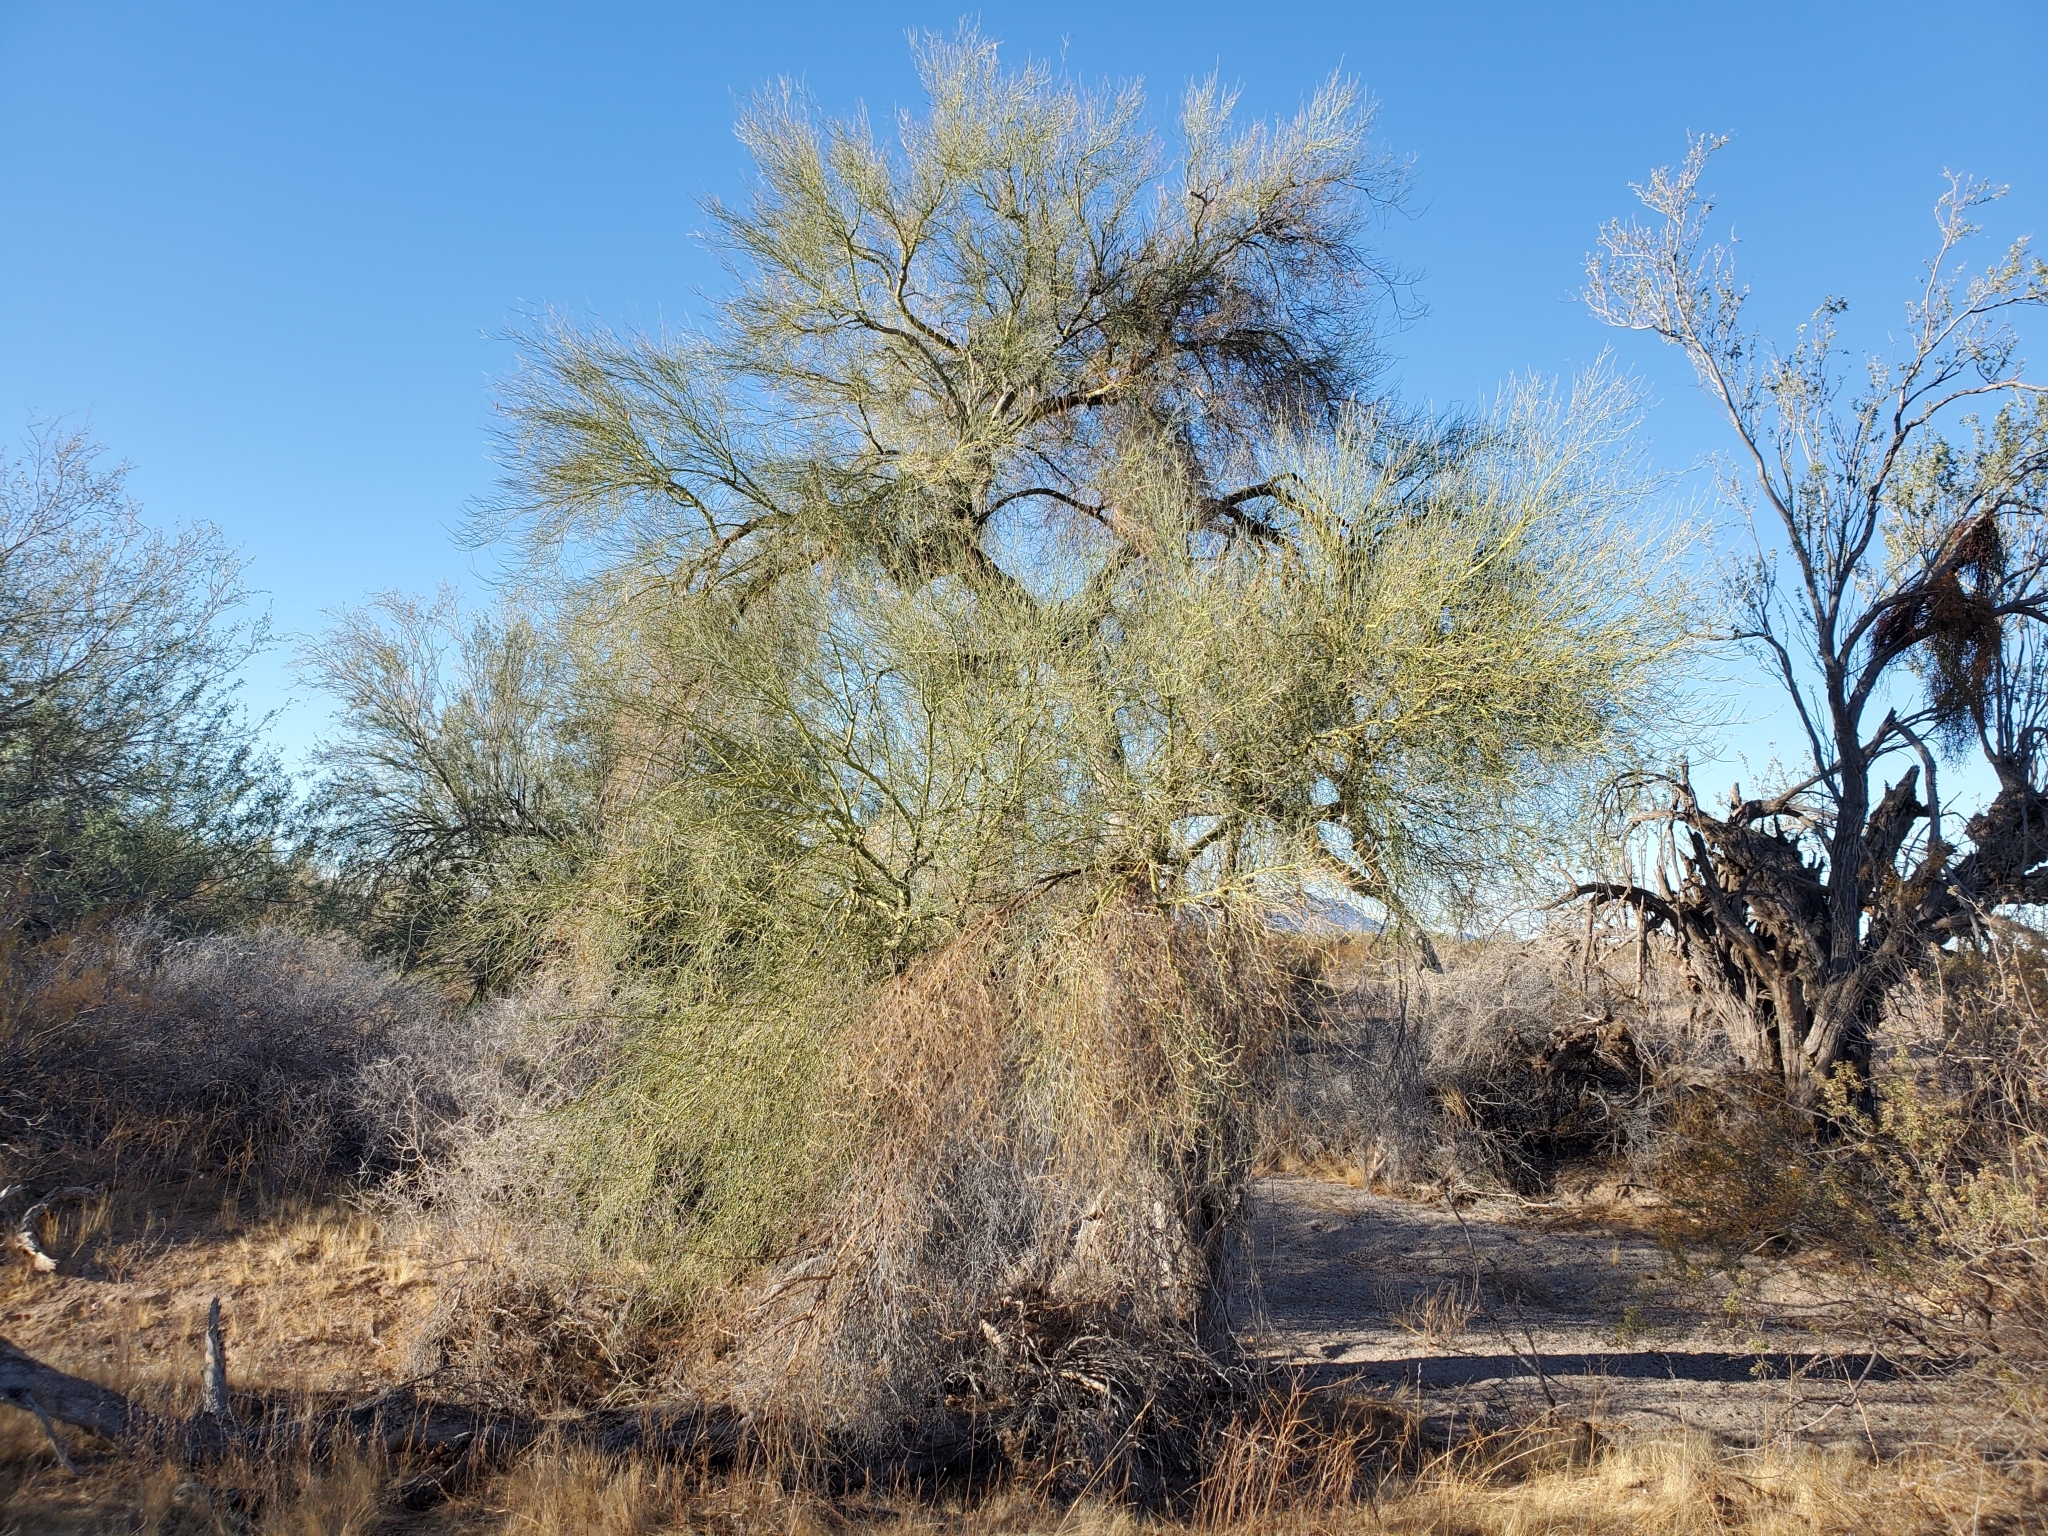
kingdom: Plantae
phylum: Tracheophyta
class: Magnoliopsida
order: Fabales
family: Fabaceae
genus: Parkinsonia
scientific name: Parkinsonia florida
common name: Blue paloverde
